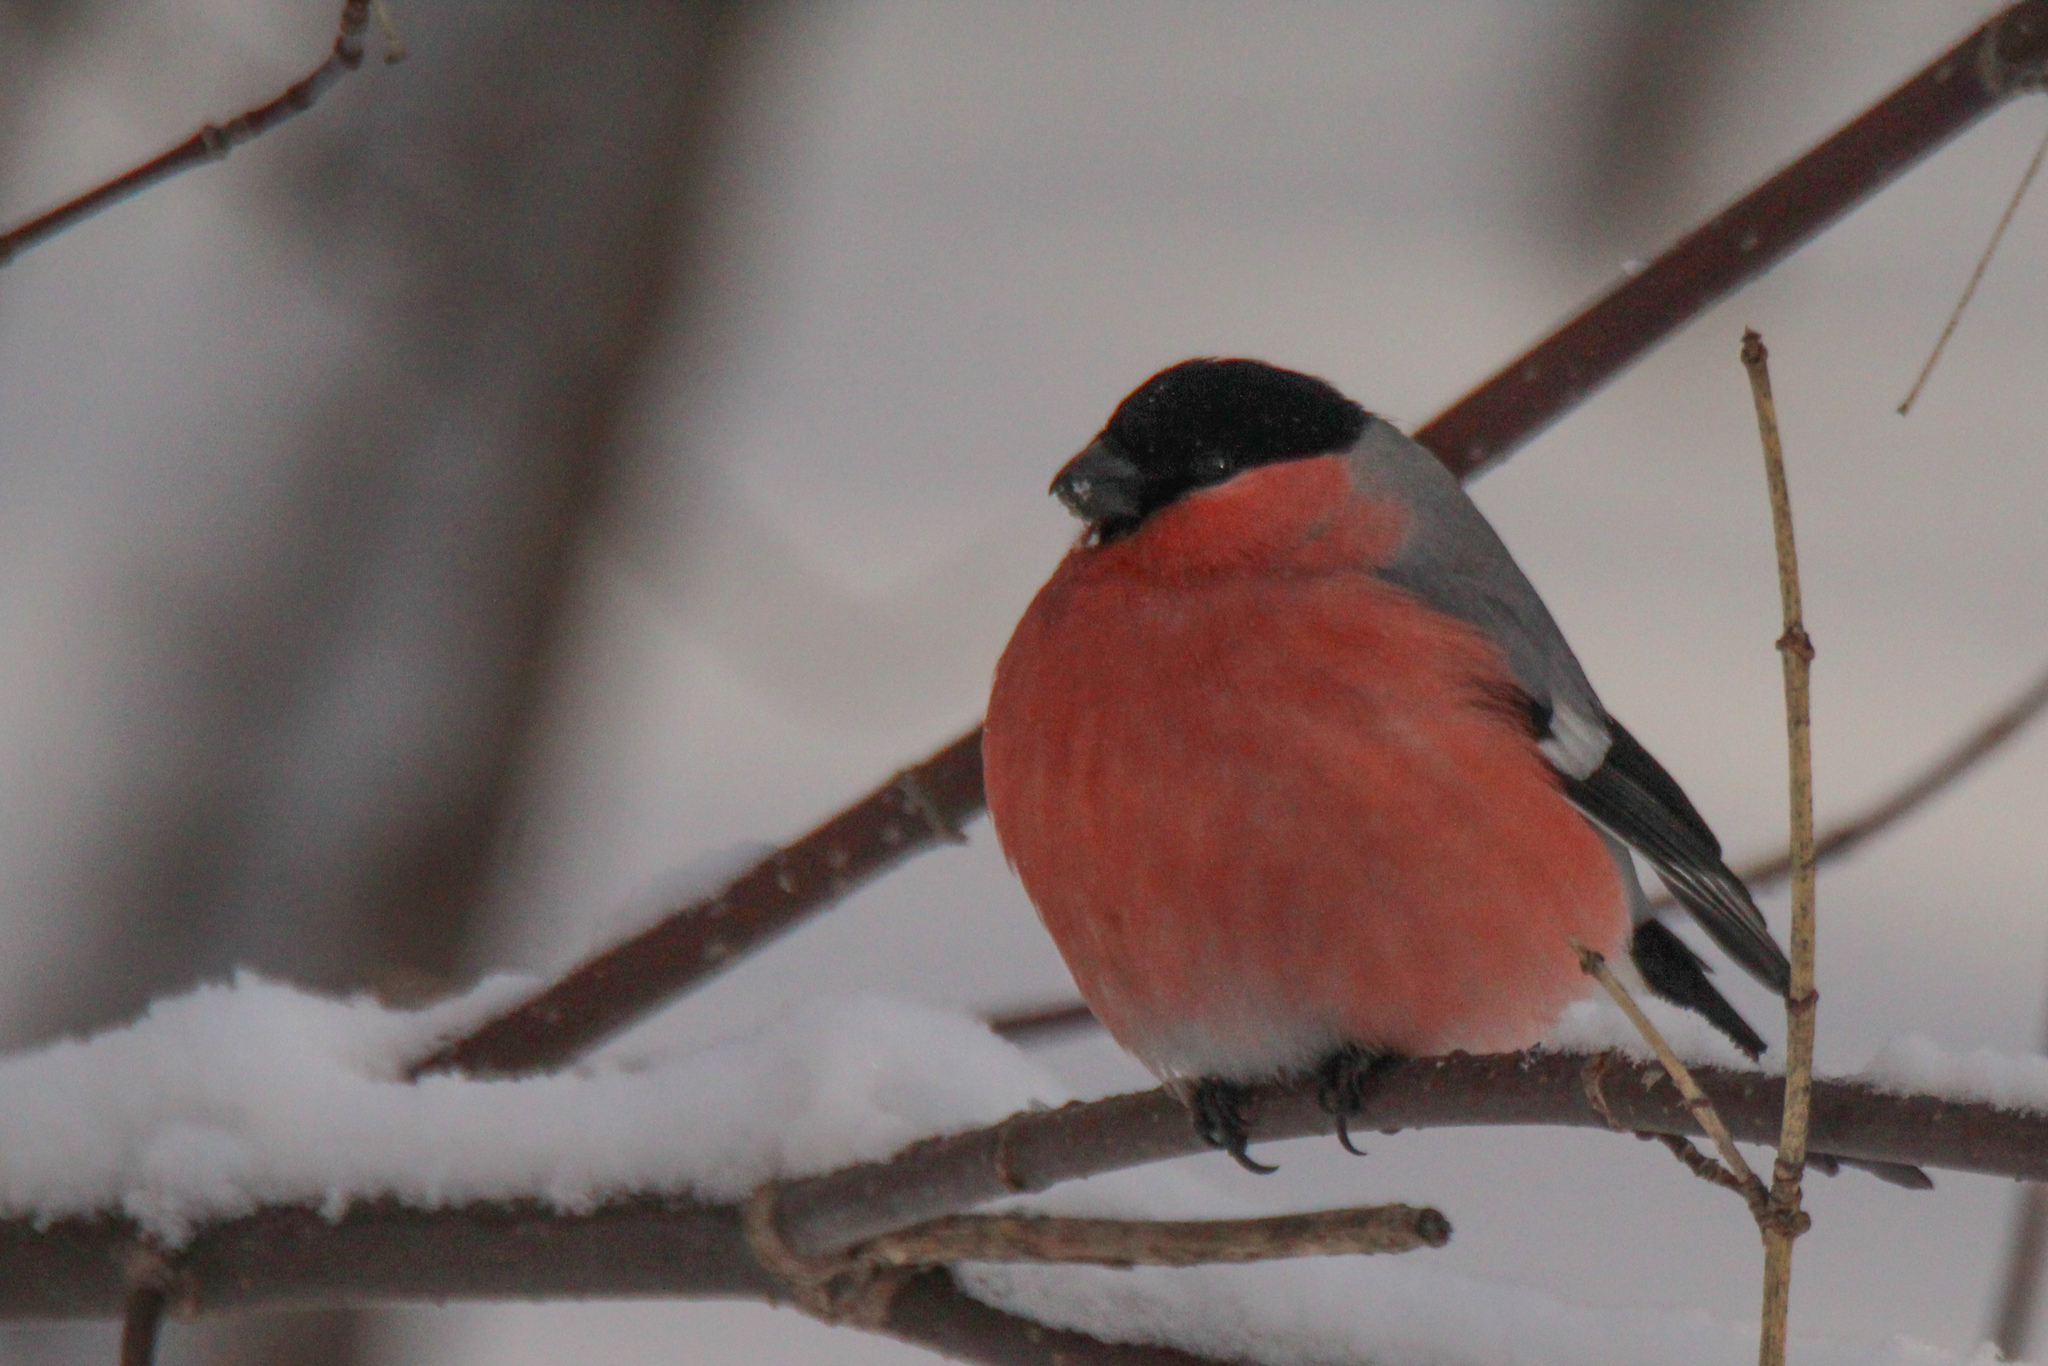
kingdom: Animalia
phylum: Chordata
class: Aves
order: Passeriformes
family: Fringillidae
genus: Pyrrhula
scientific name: Pyrrhula pyrrhula
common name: Eurasian bullfinch
